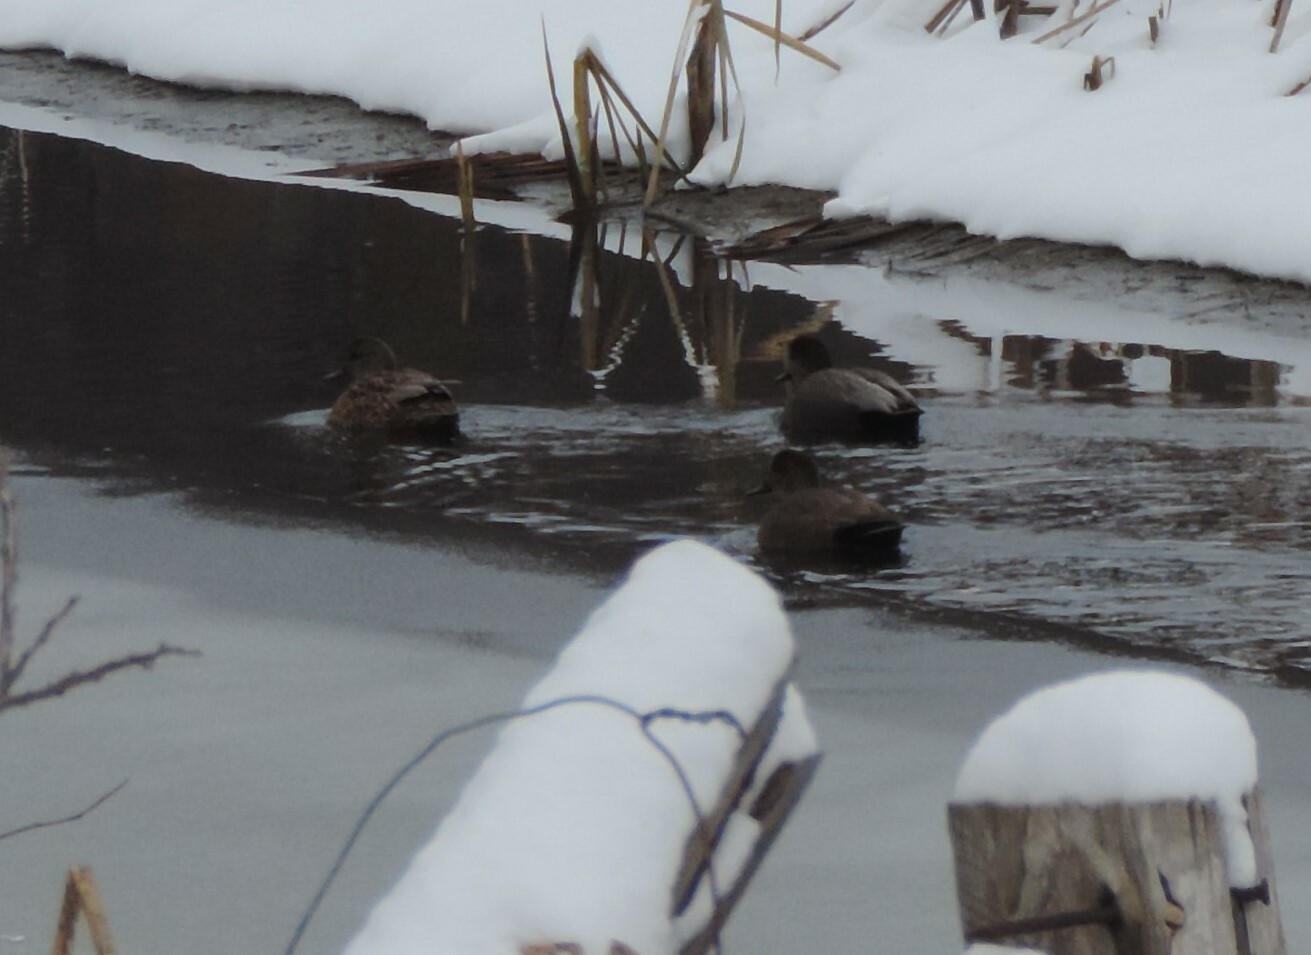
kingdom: Animalia
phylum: Chordata
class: Aves
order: Anseriformes
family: Anatidae
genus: Mareca
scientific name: Mareca strepera
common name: Gadwall
